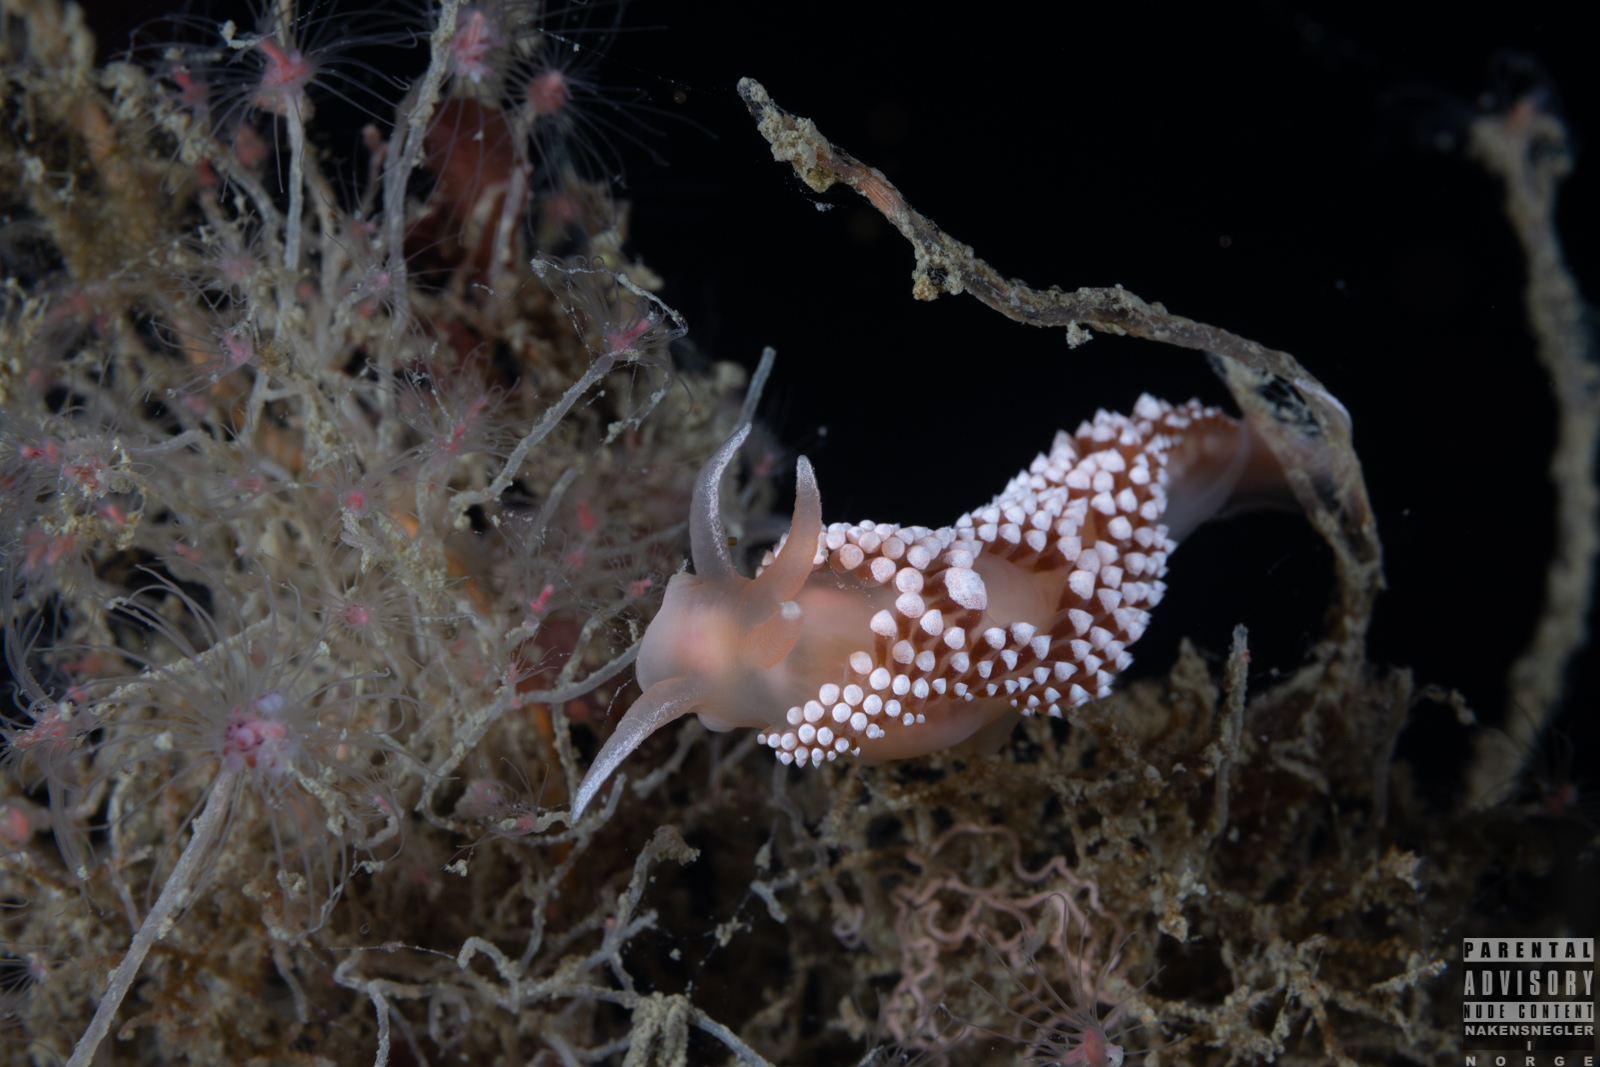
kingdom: Animalia
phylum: Mollusca
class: Gastropoda
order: Nudibranchia
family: Coryphellidae
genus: Coryphella
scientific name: Coryphella verrucosa
